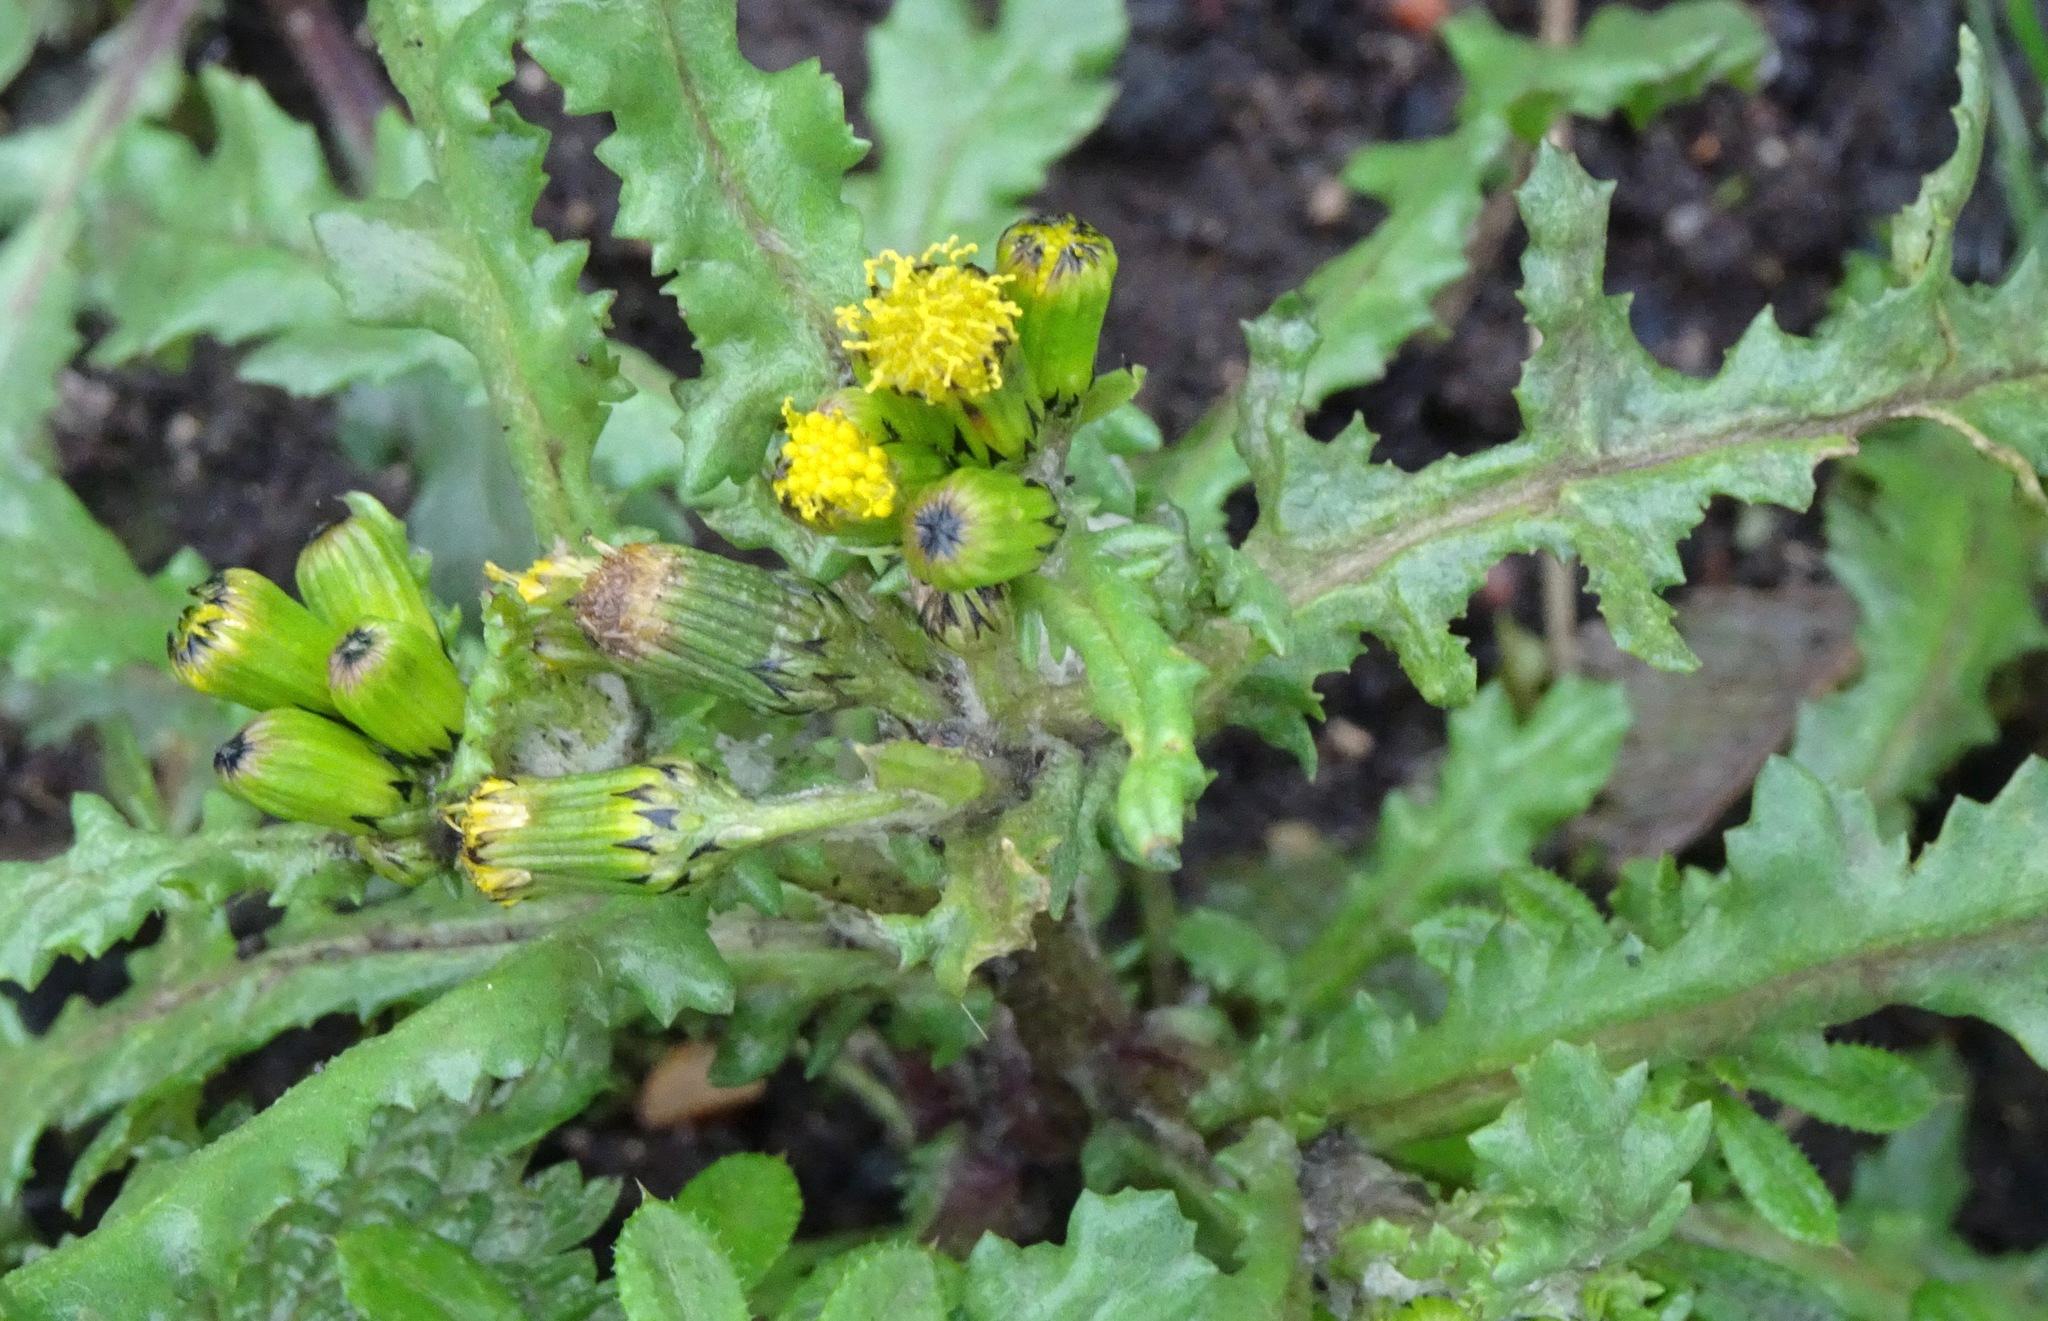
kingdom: Plantae
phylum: Tracheophyta
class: Magnoliopsida
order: Asterales
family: Asteraceae
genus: Senecio
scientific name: Senecio vulgaris
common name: Old-man-in-the-spring
